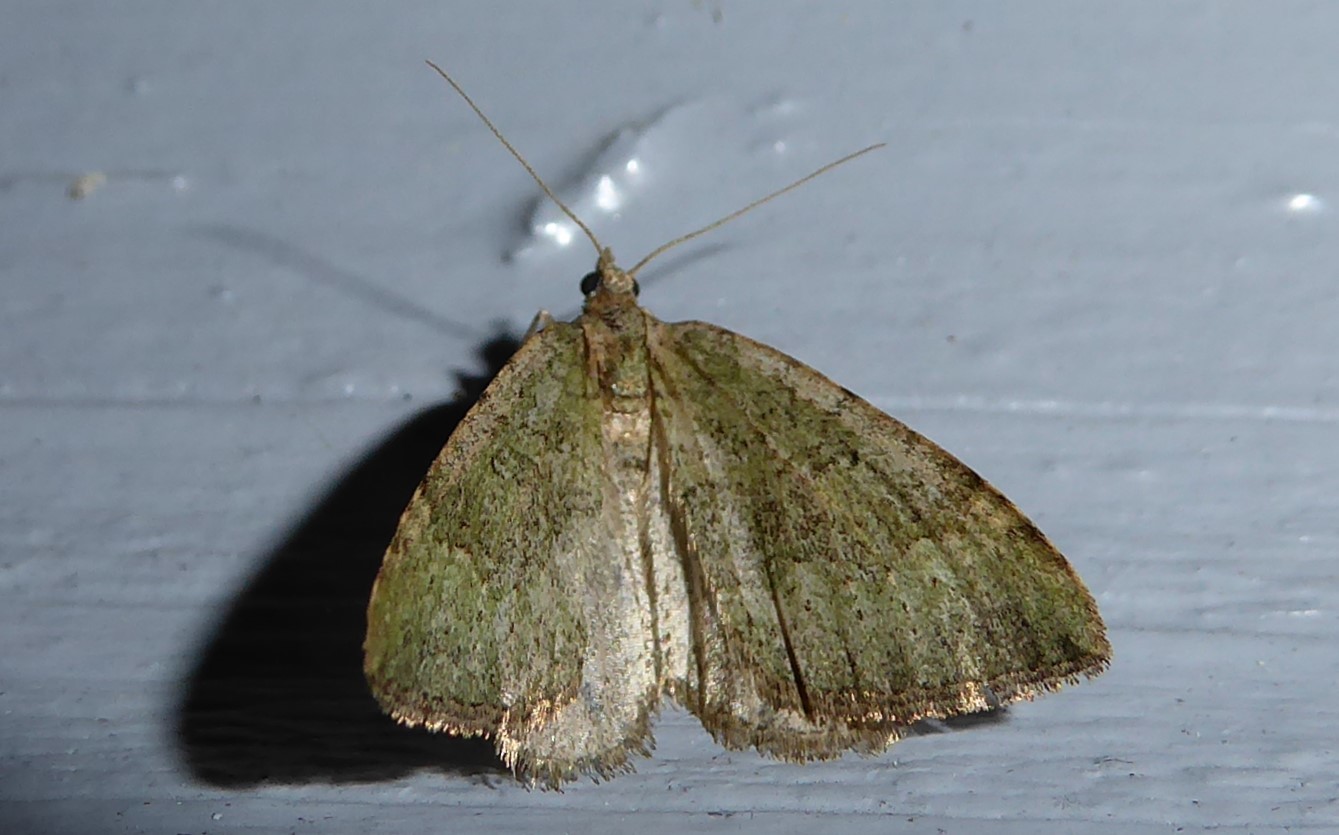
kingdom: Animalia
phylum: Arthropoda
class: Insecta
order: Lepidoptera
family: Geometridae
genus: Epyaxa
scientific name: Epyaxa rosearia
